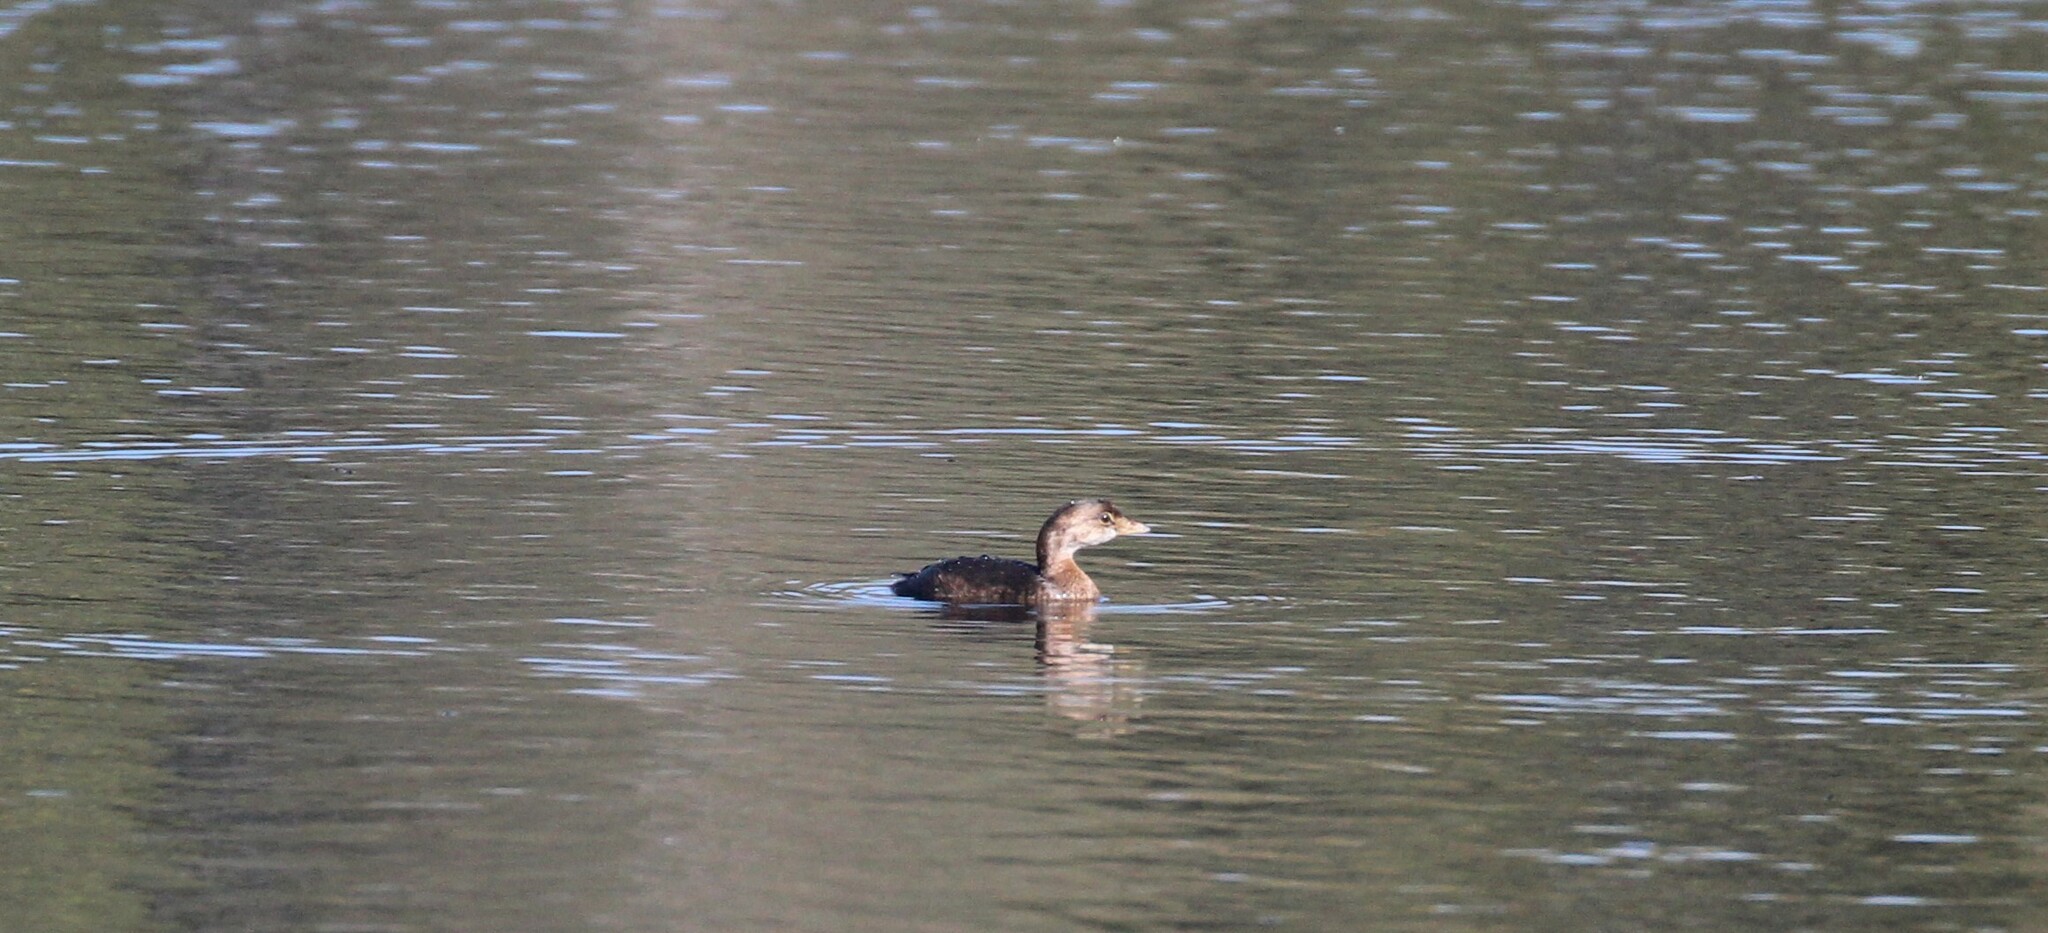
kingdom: Animalia
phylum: Chordata
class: Aves
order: Podicipediformes
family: Podicipedidae
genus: Podilymbus
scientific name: Podilymbus podiceps
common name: Pied-billed grebe
